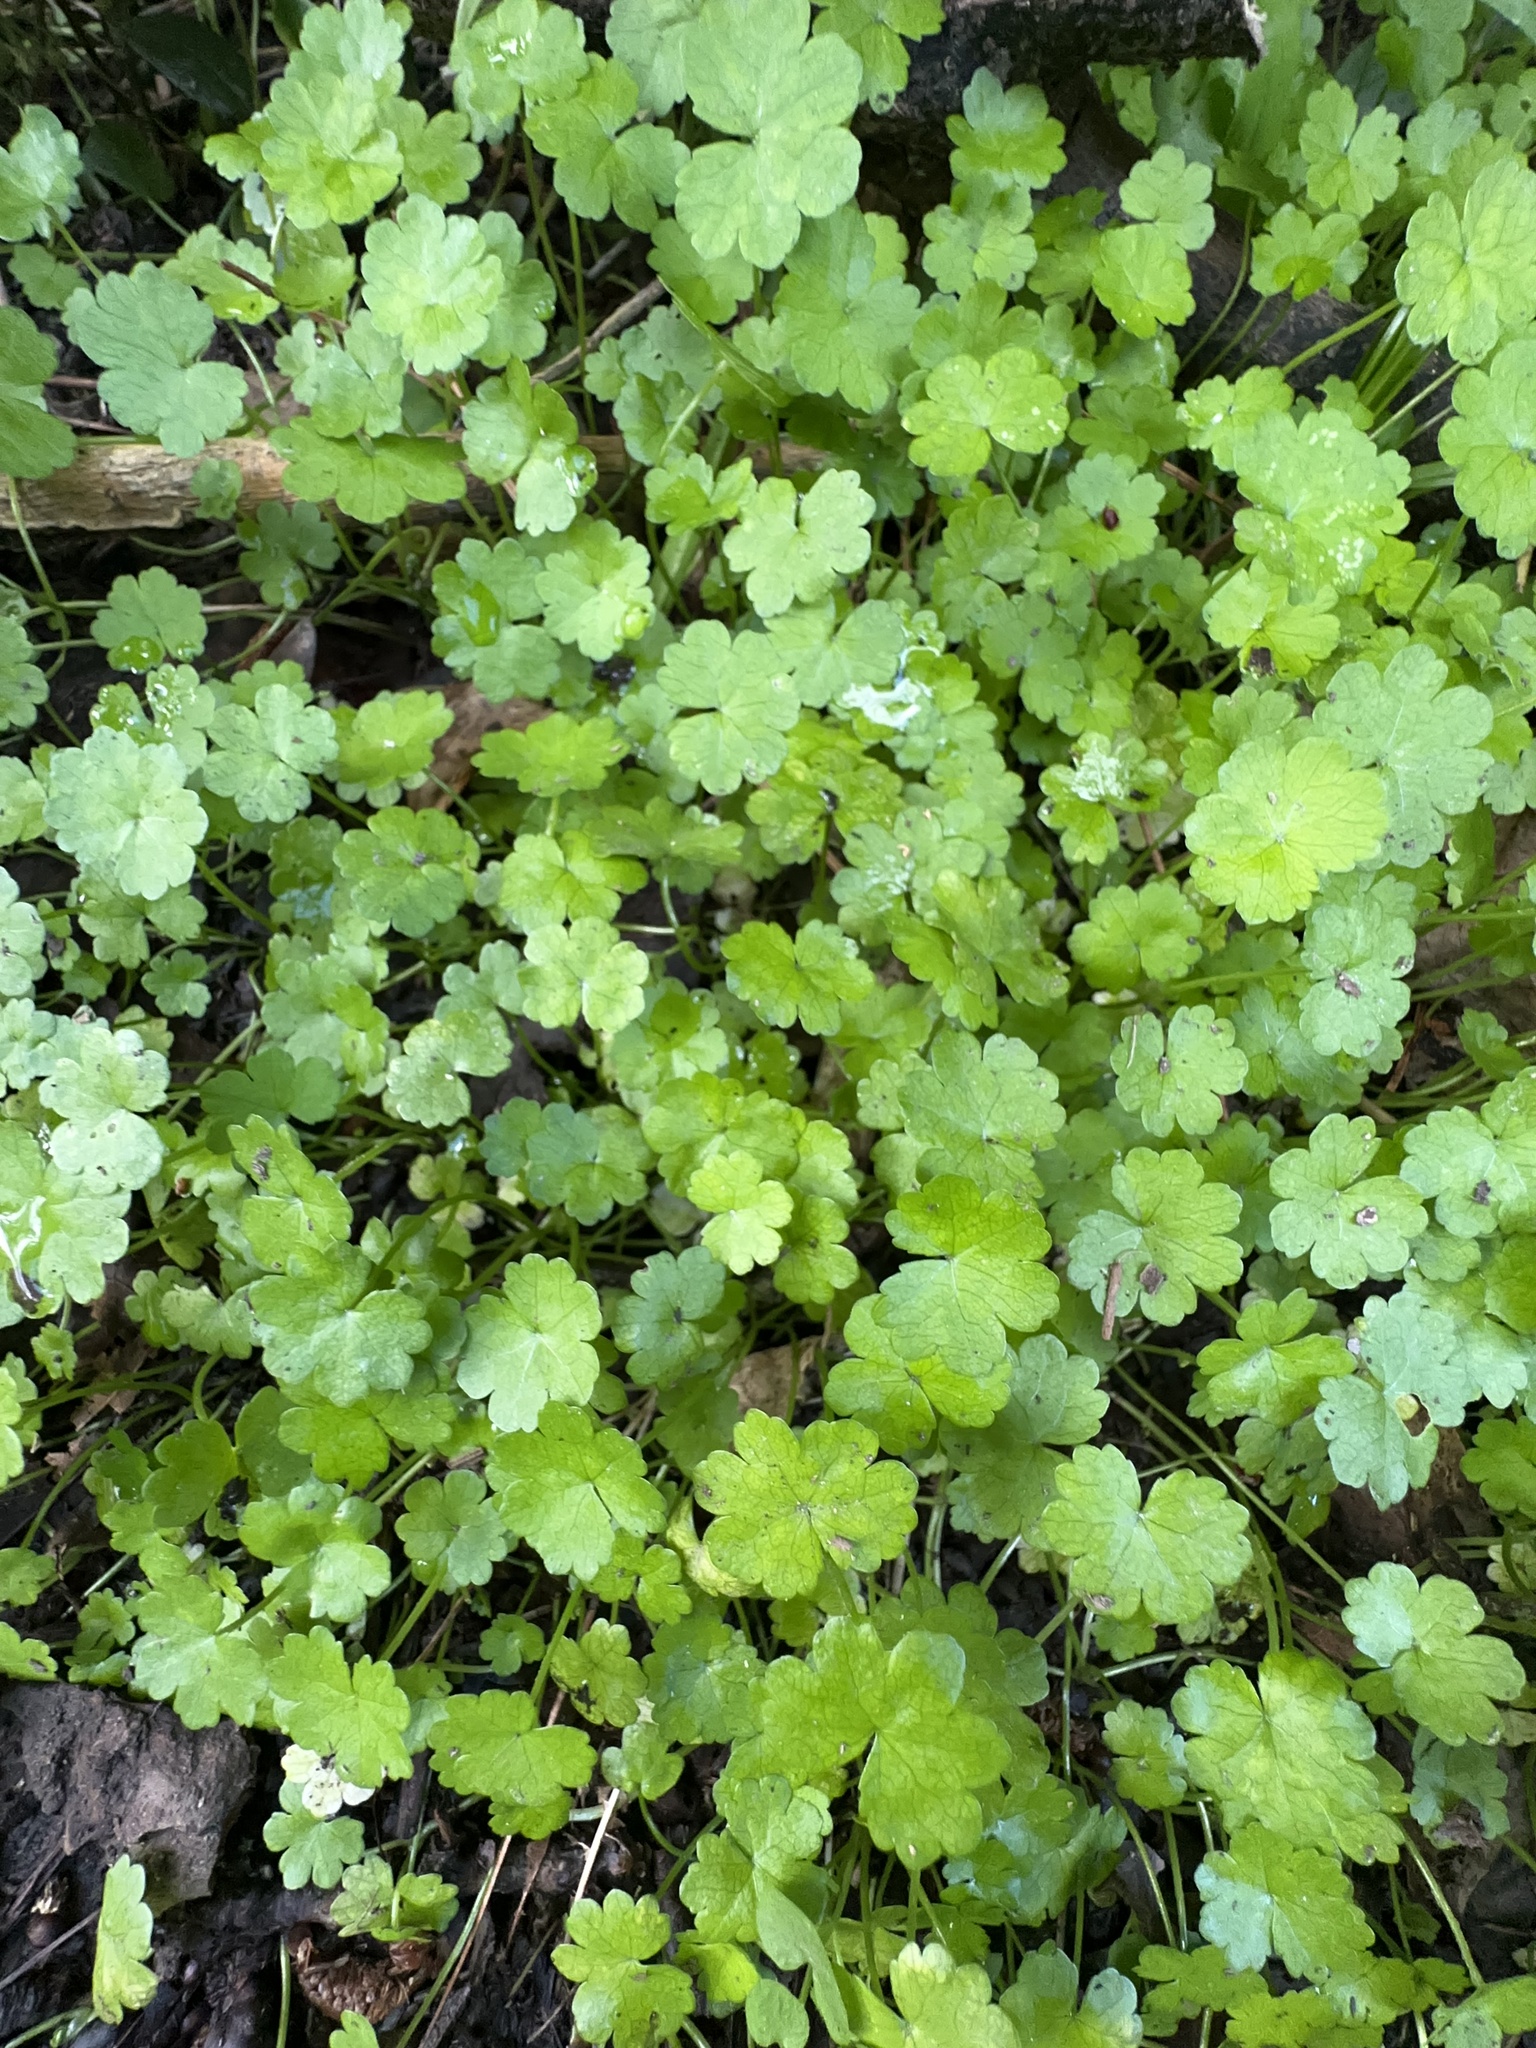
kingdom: Plantae
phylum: Tracheophyta
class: Magnoliopsida
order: Apiales
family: Araliaceae
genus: Hydrocotyle
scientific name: Hydrocotyle heteromeria
